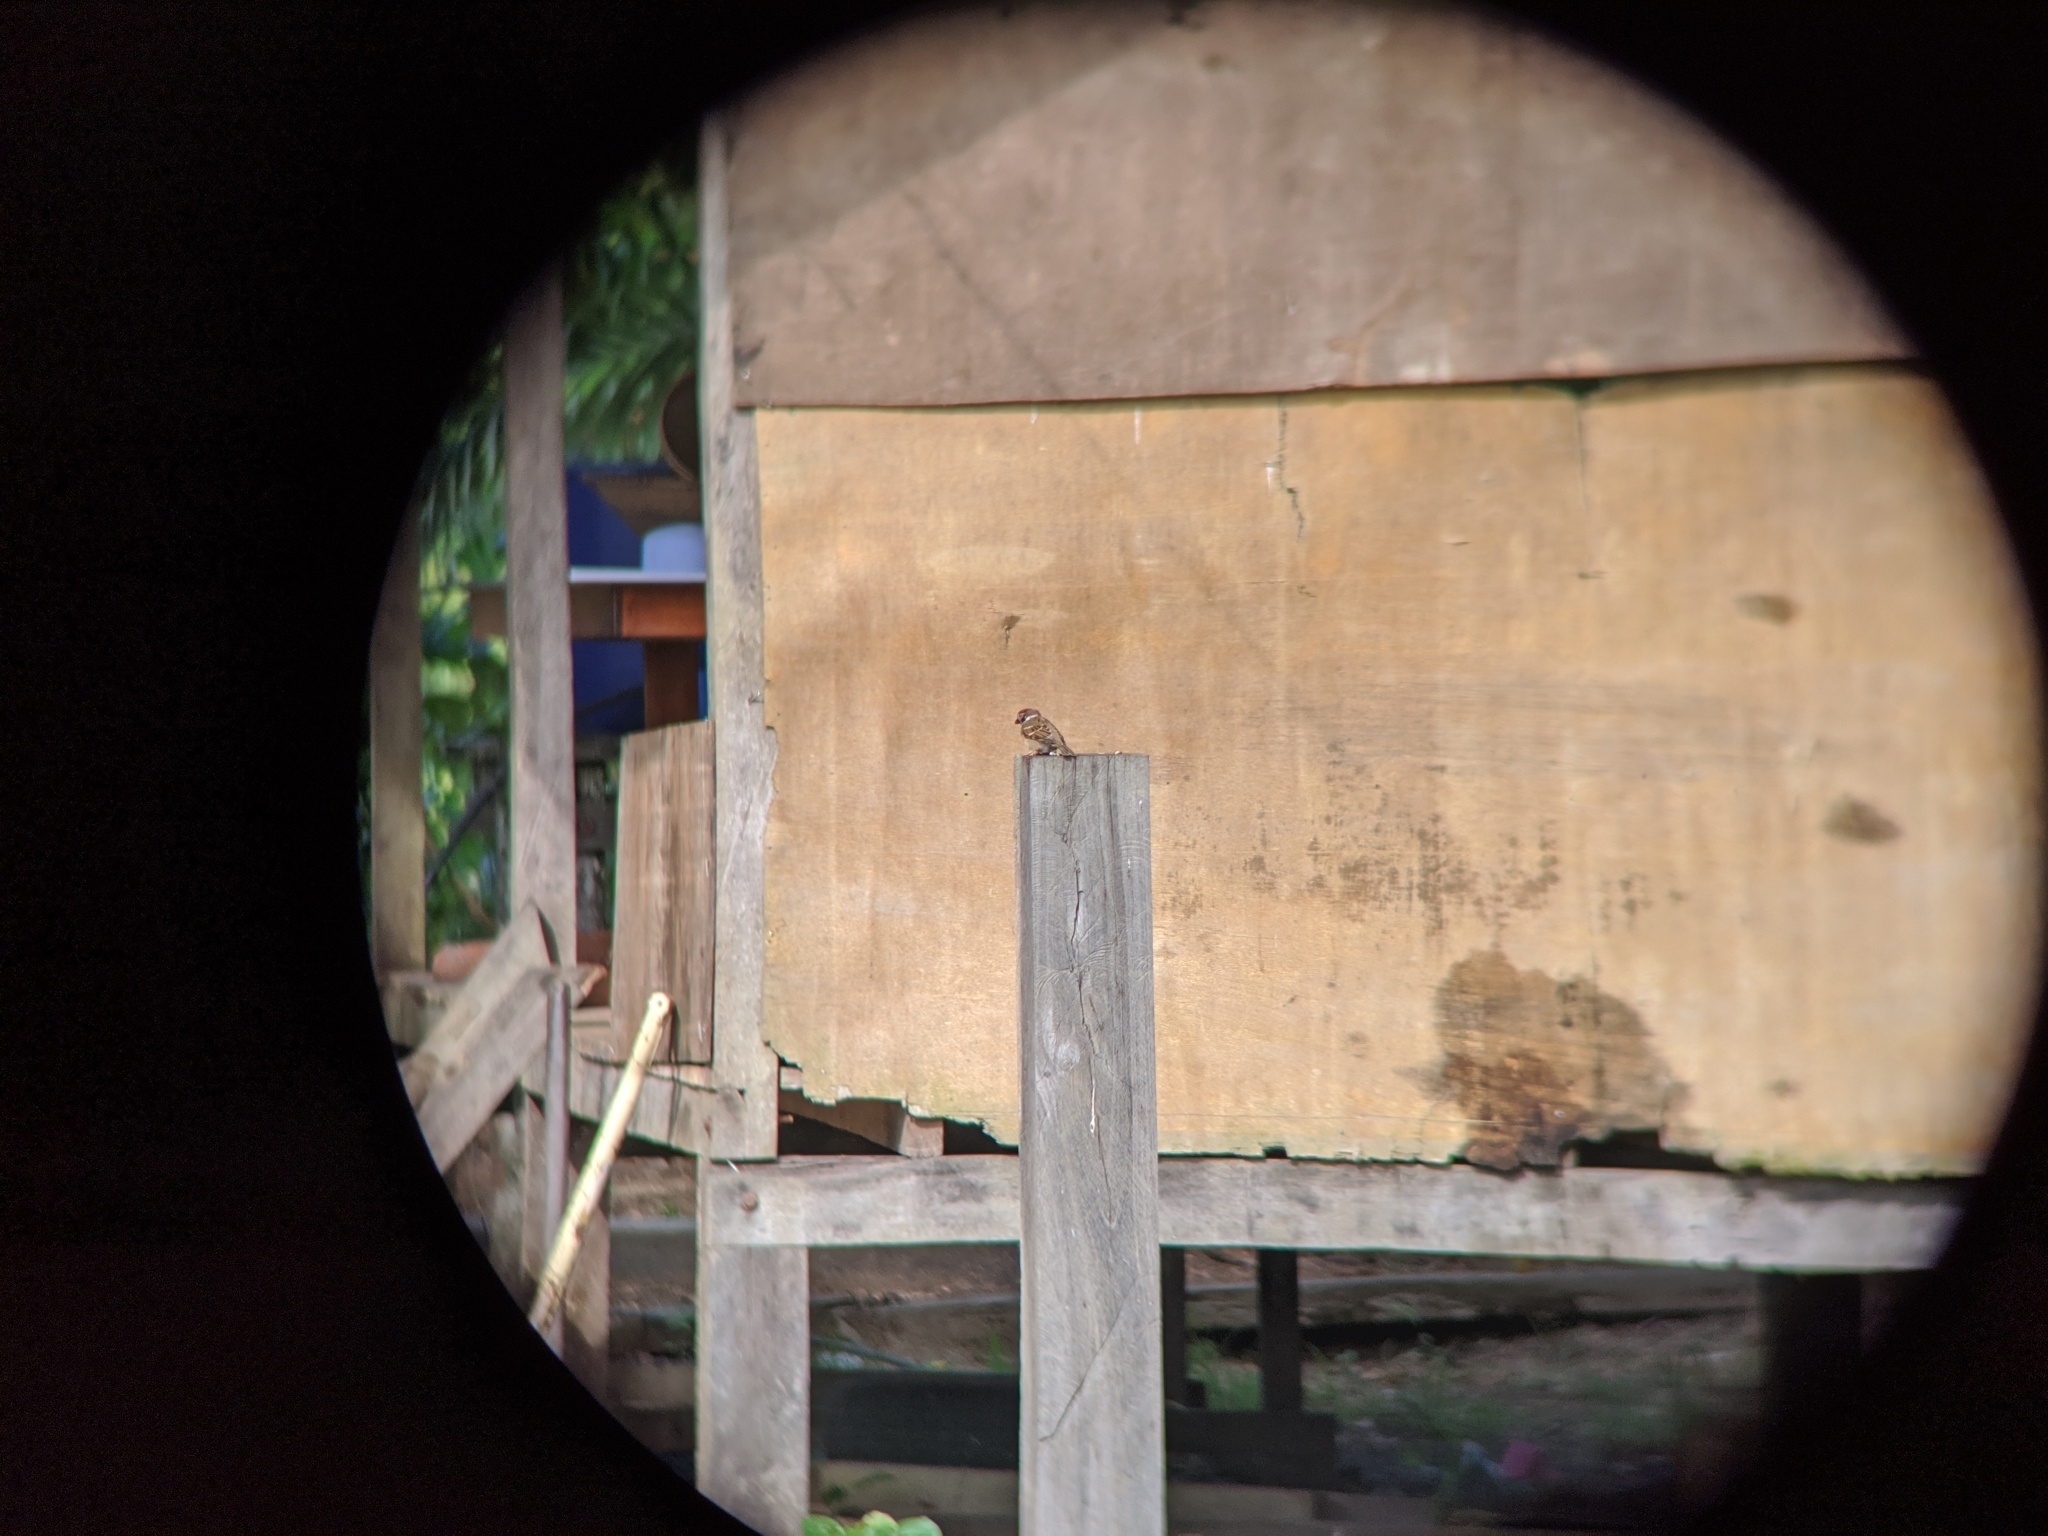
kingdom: Animalia
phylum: Chordata
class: Aves
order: Passeriformes
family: Passeridae
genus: Passer
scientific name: Passer montanus
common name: Eurasian tree sparrow
